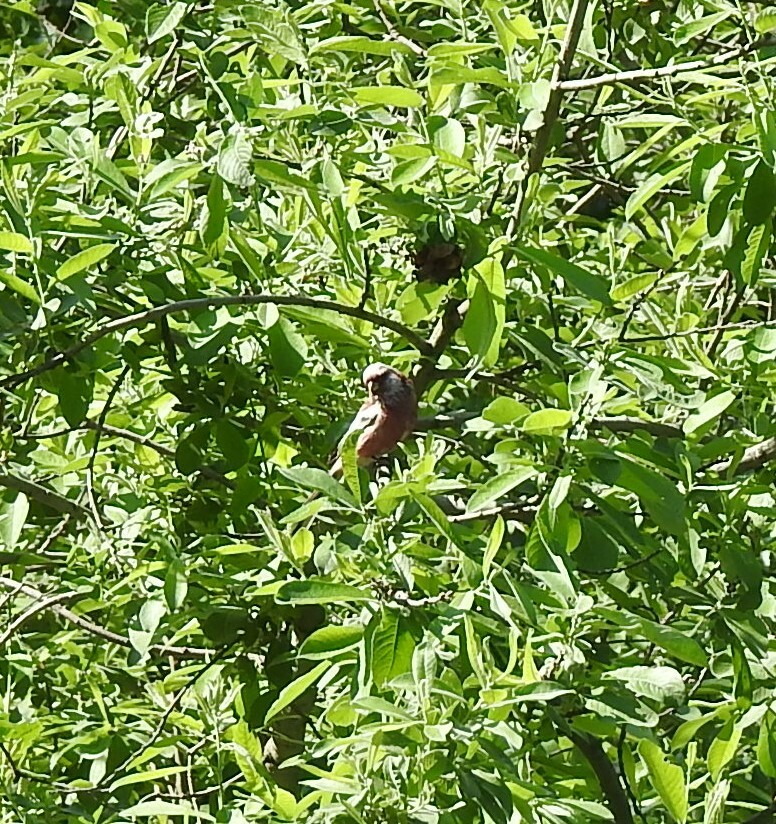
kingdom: Animalia
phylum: Chordata
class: Aves
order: Passeriformes
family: Fringillidae
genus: Carpodacus
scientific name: Carpodacus sibiricus
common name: Long-tailed rosefinch
